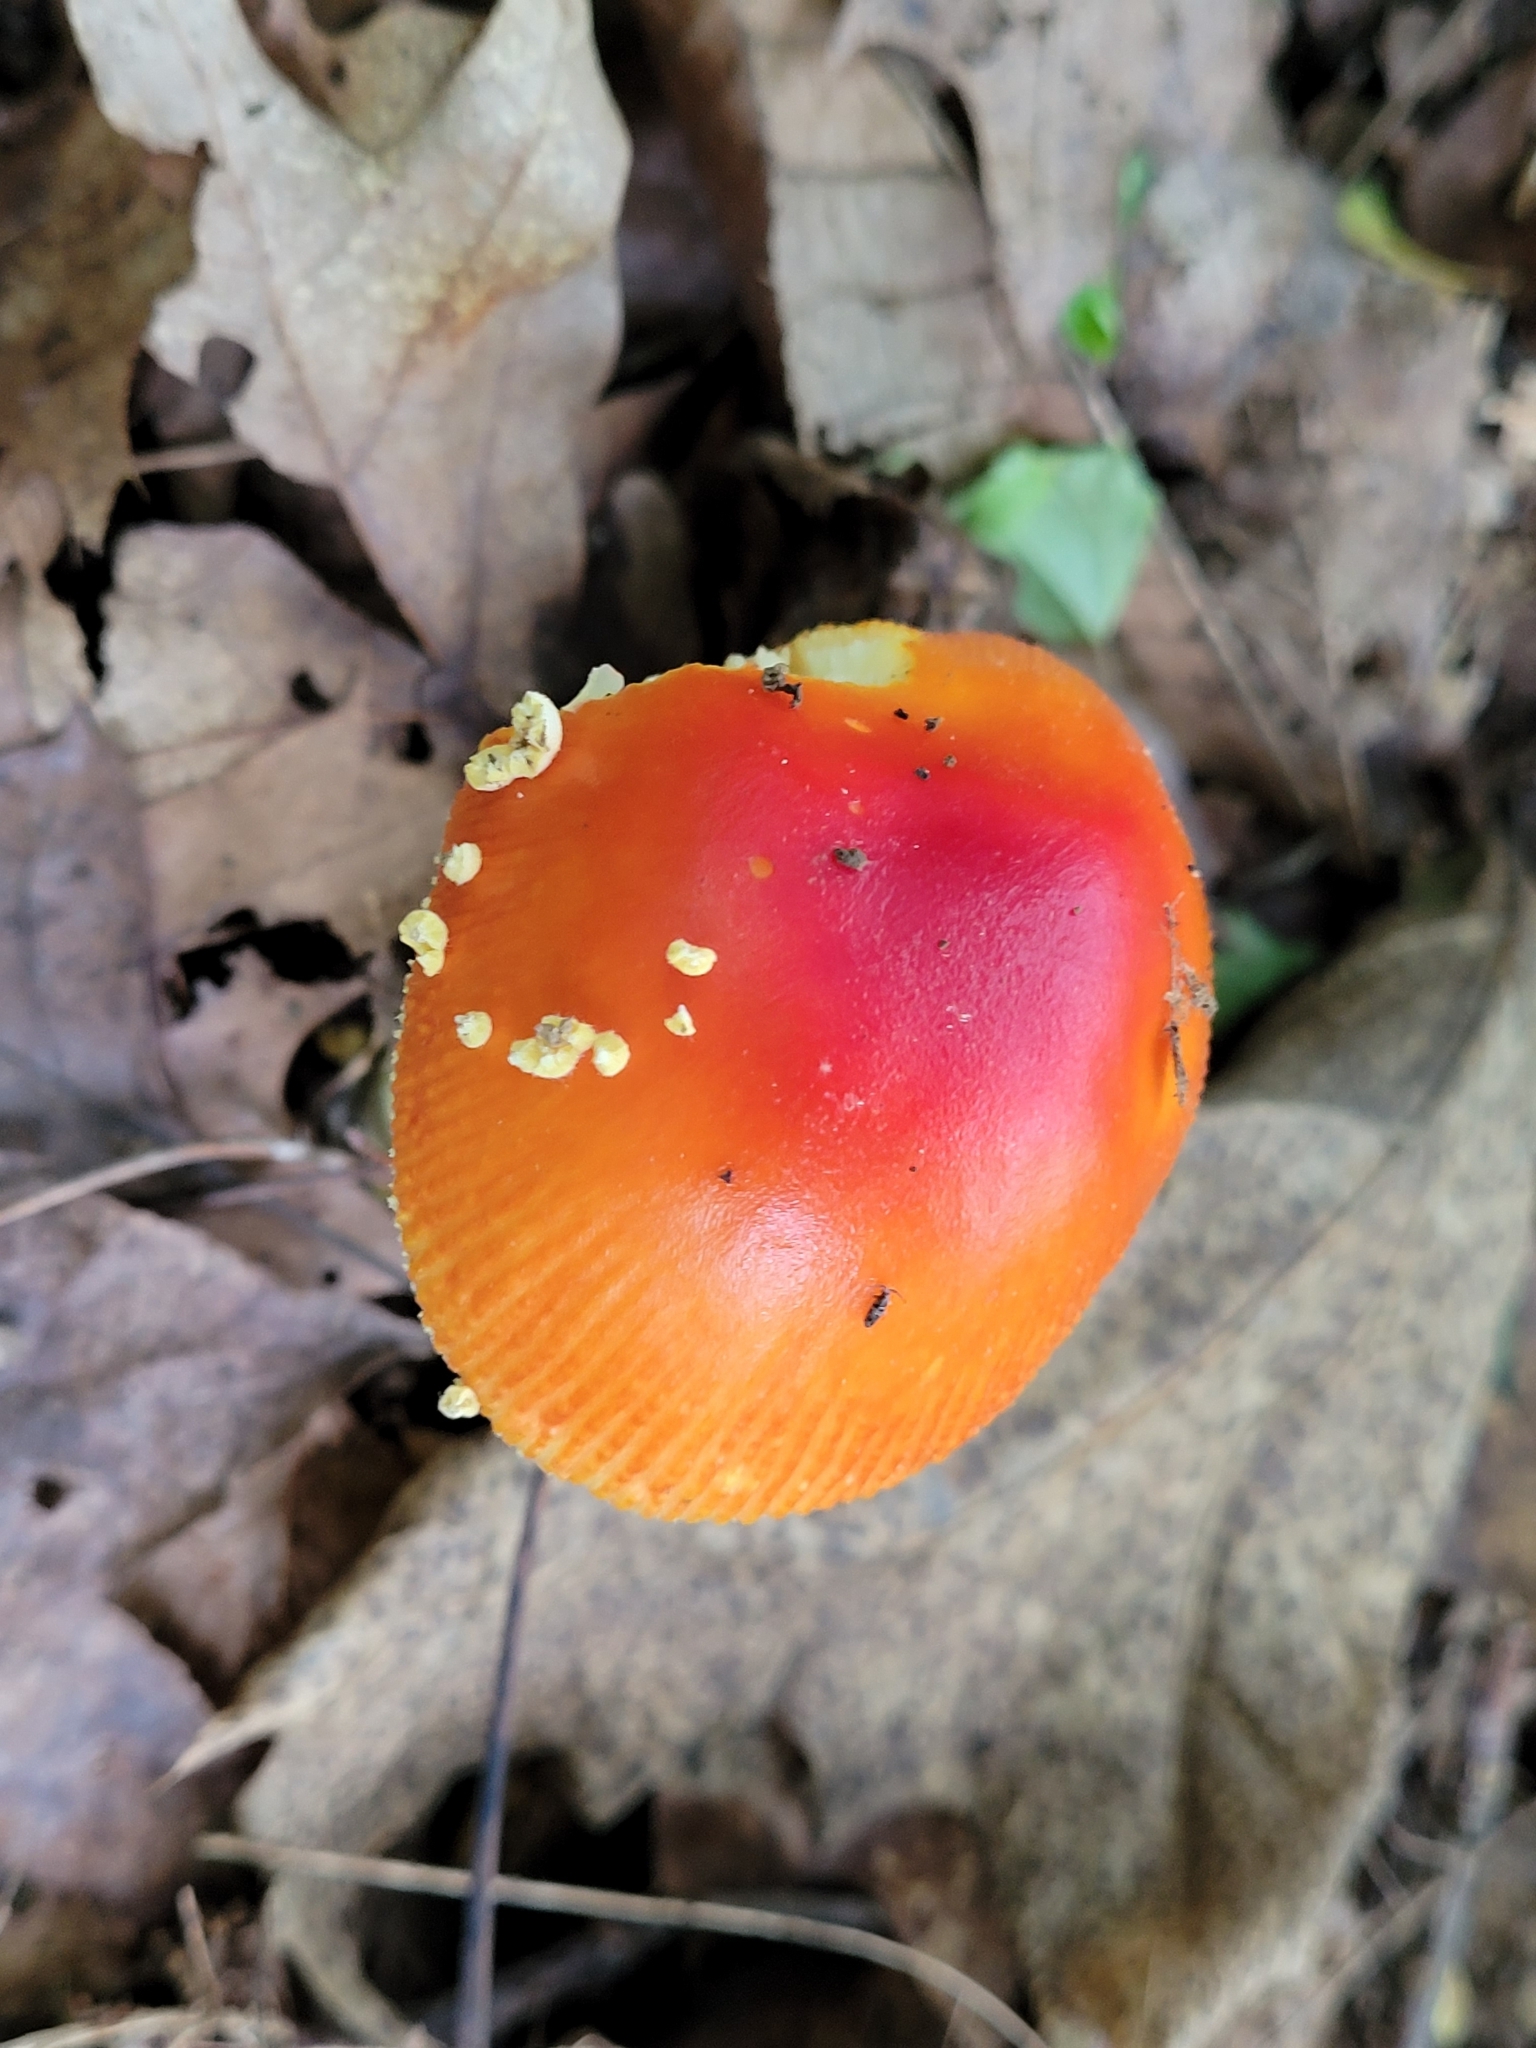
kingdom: Fungi
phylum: Basidiomycota
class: Agaricomycetes
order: Agaricales
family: Amanitaceae
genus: Amanita
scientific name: Amanita parcivolvata
